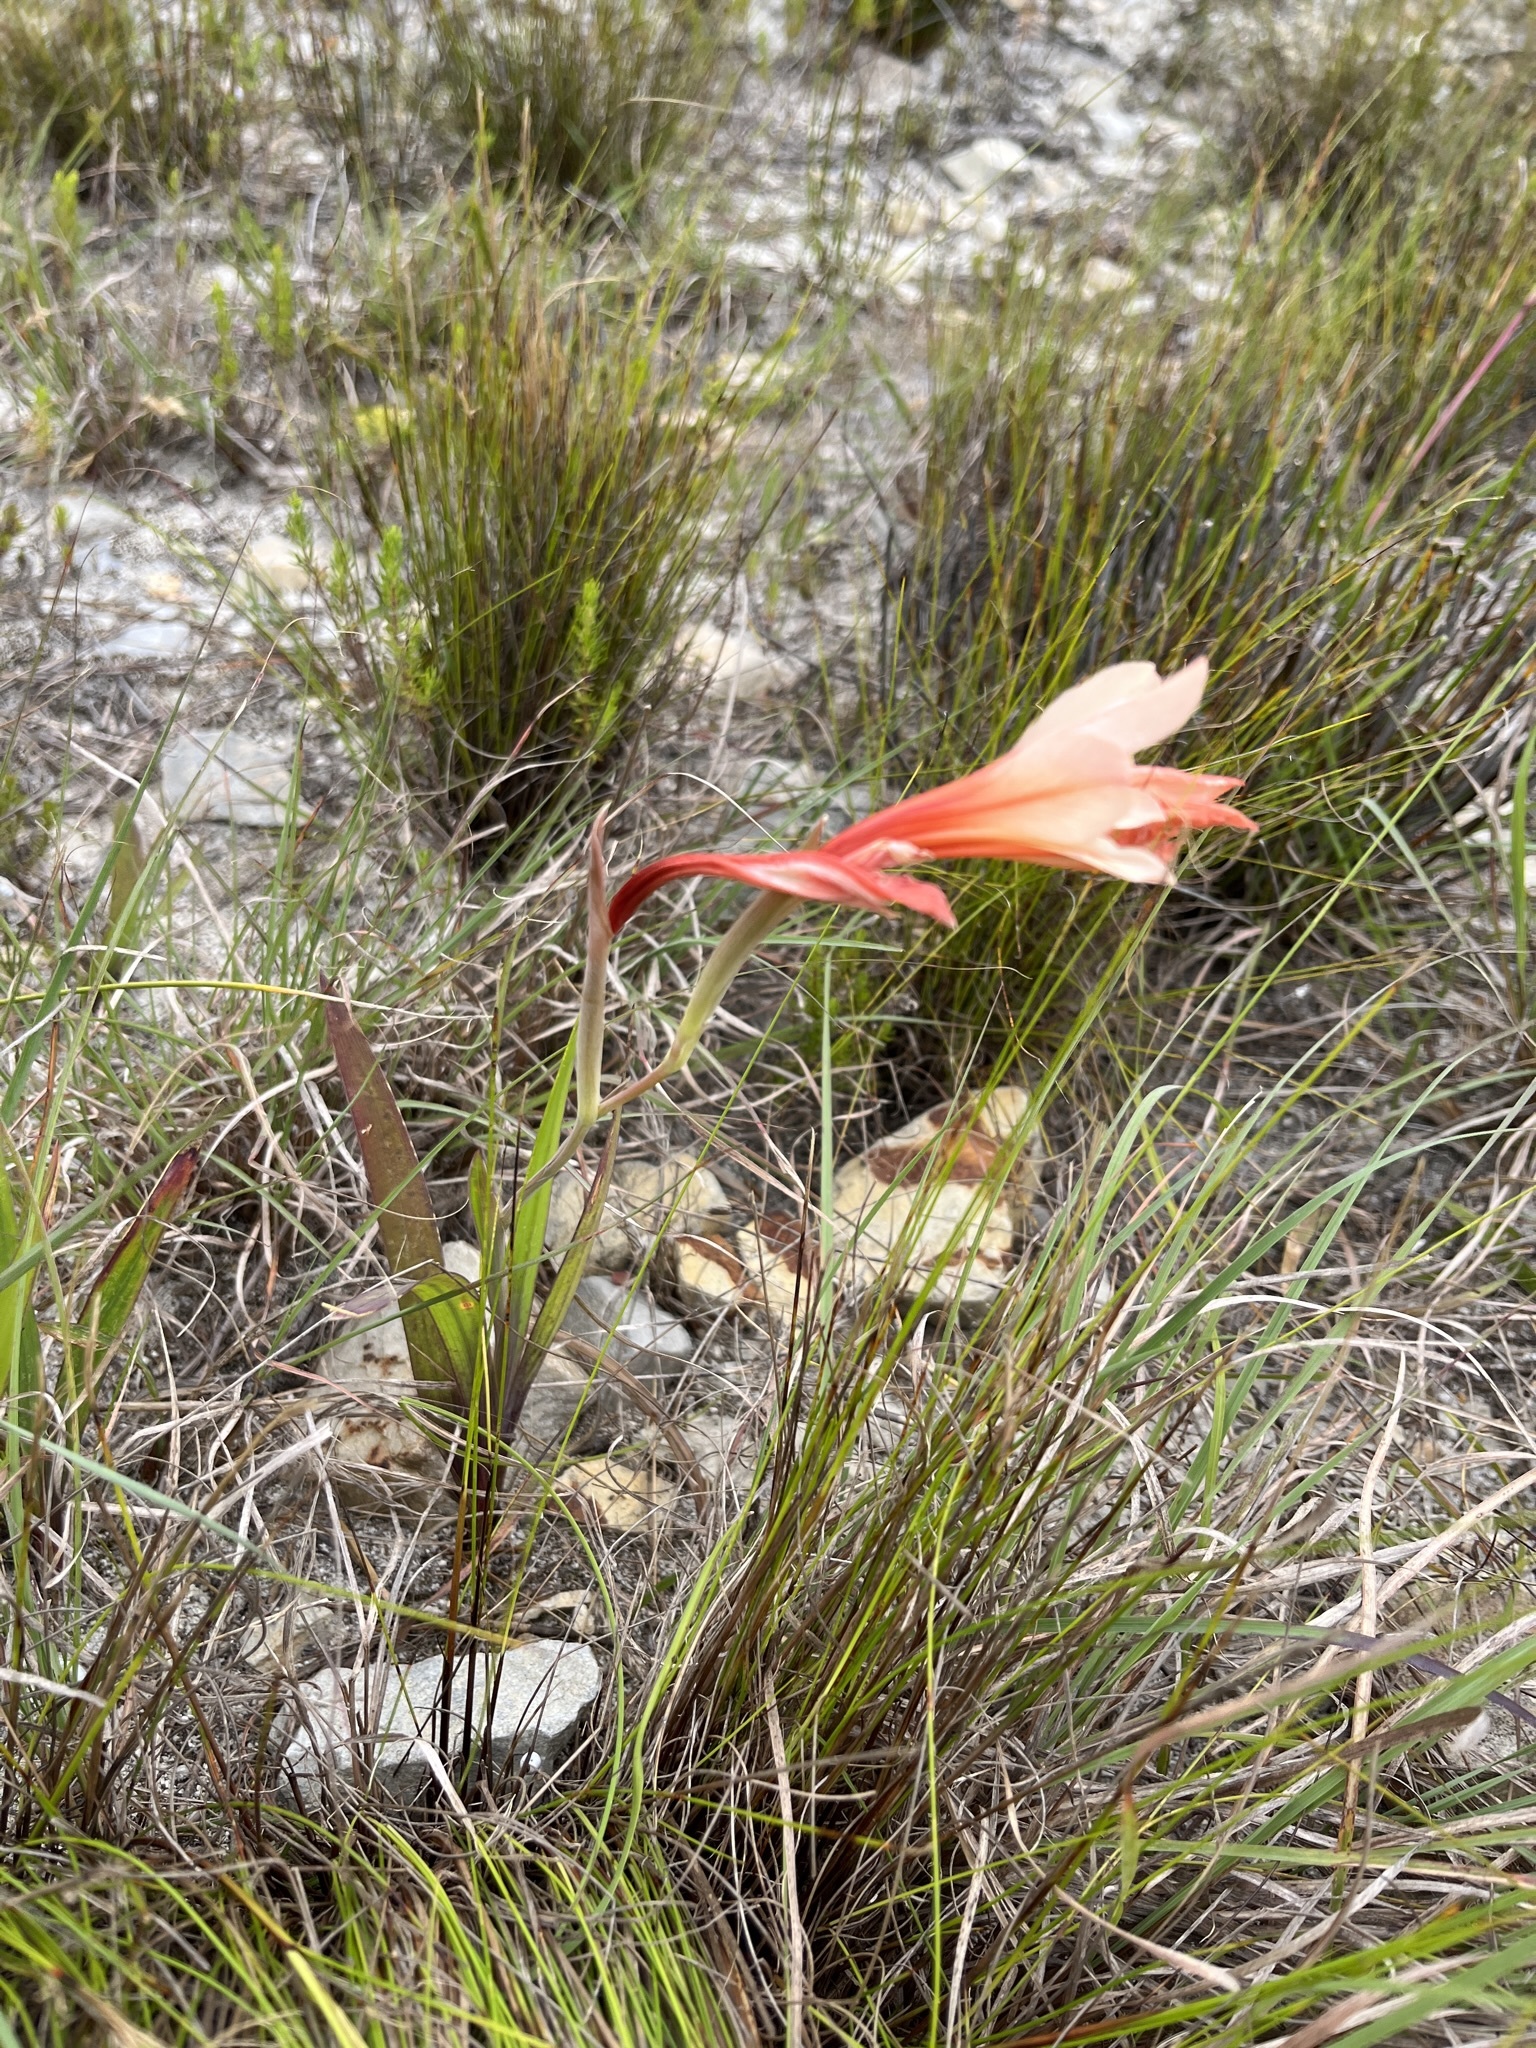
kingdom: Plantae
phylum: Tracheophyta
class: Liliopsida
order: Asparagales
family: Iridaceae
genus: Gladiolus
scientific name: Gladiolus miniatus
